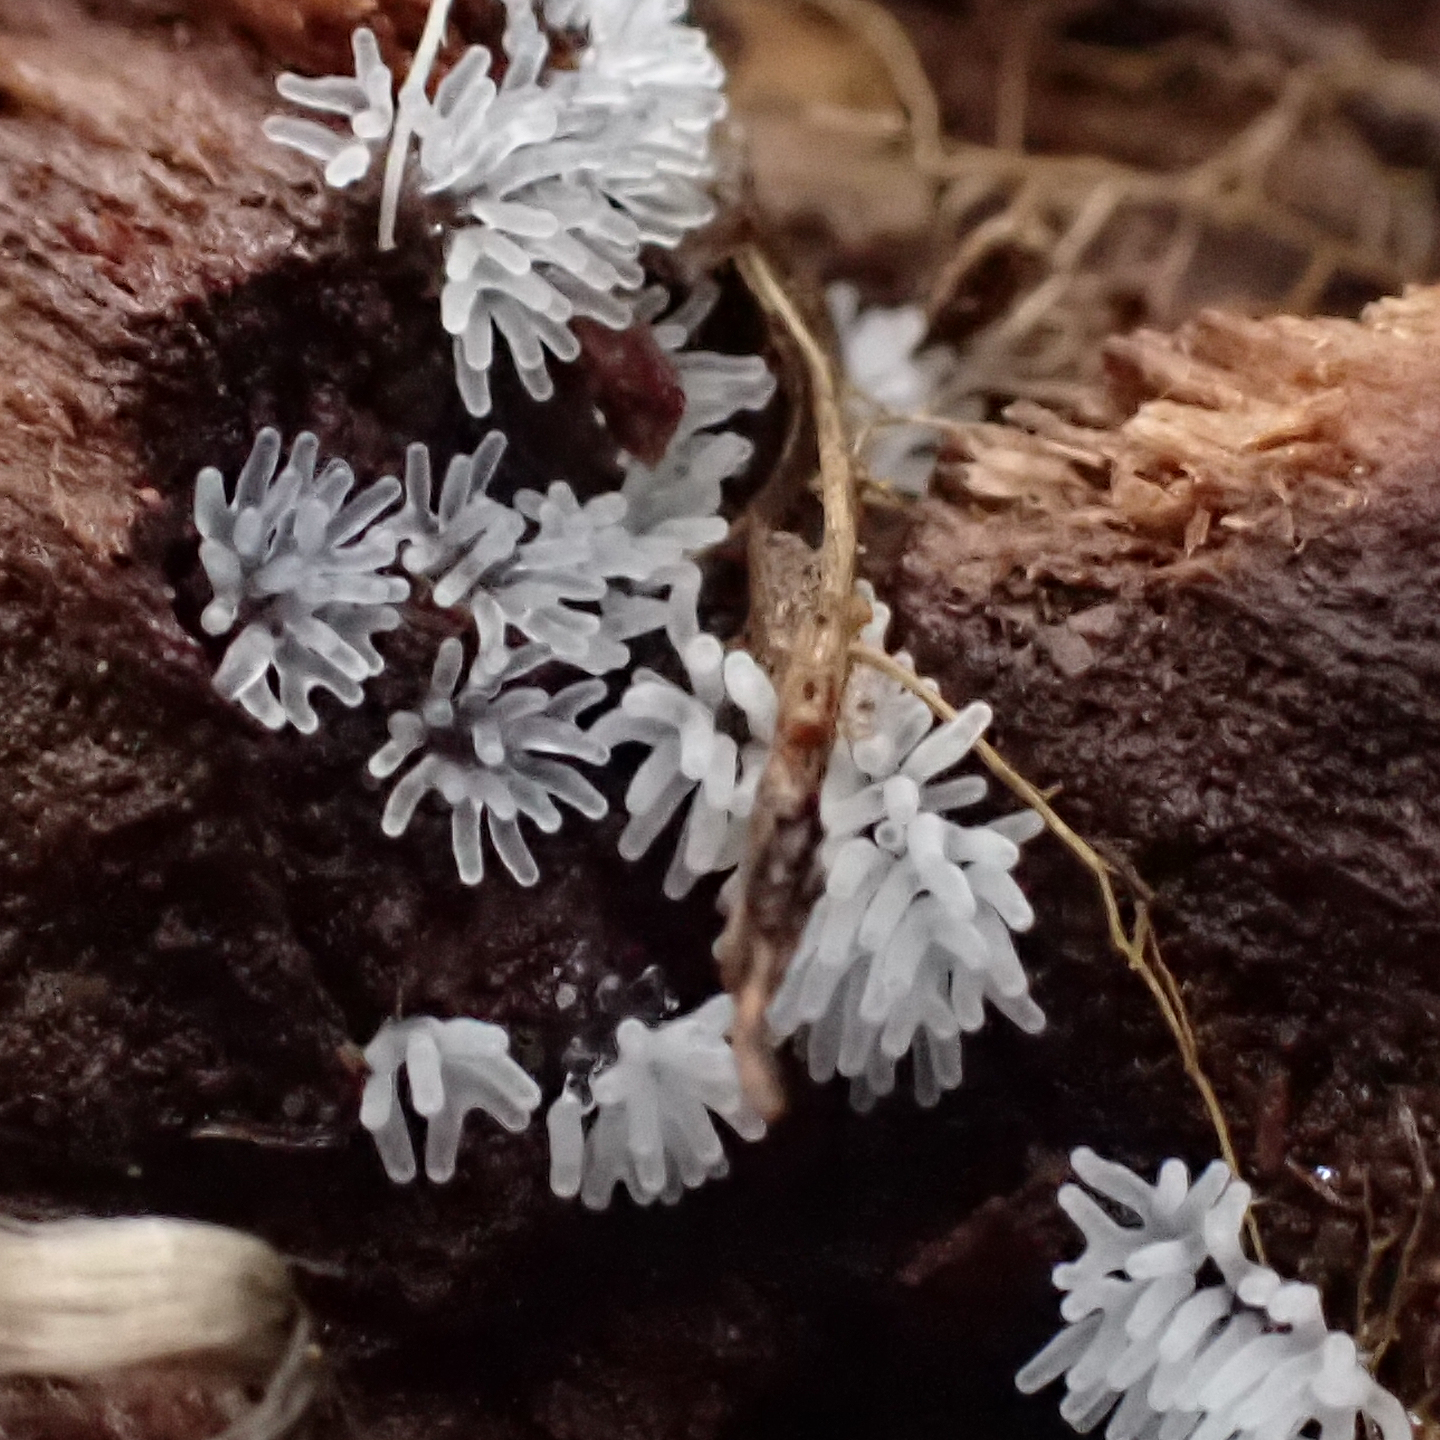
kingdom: Protozoa
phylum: Mycetozoa
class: Protosteliomycetes
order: Ceratiomyxales
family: Ceratiomyxaceae
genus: Ceratiomyxa
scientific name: Ceratiomyxa fruticulosa
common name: Honeycomb coral slime mold
